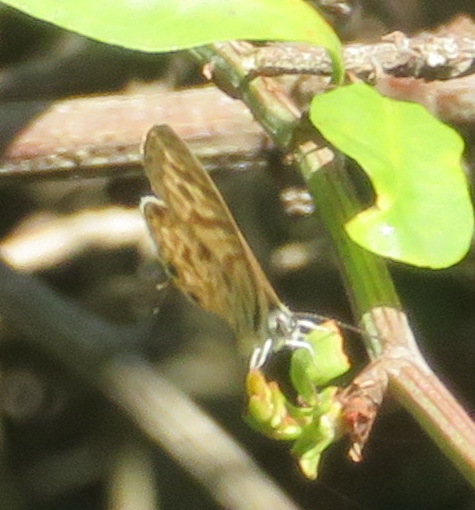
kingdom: Animalia
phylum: Arthropoda
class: Insecta
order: Lepidoptera
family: Lycaenidae
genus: Leptotes
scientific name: Leptotes
